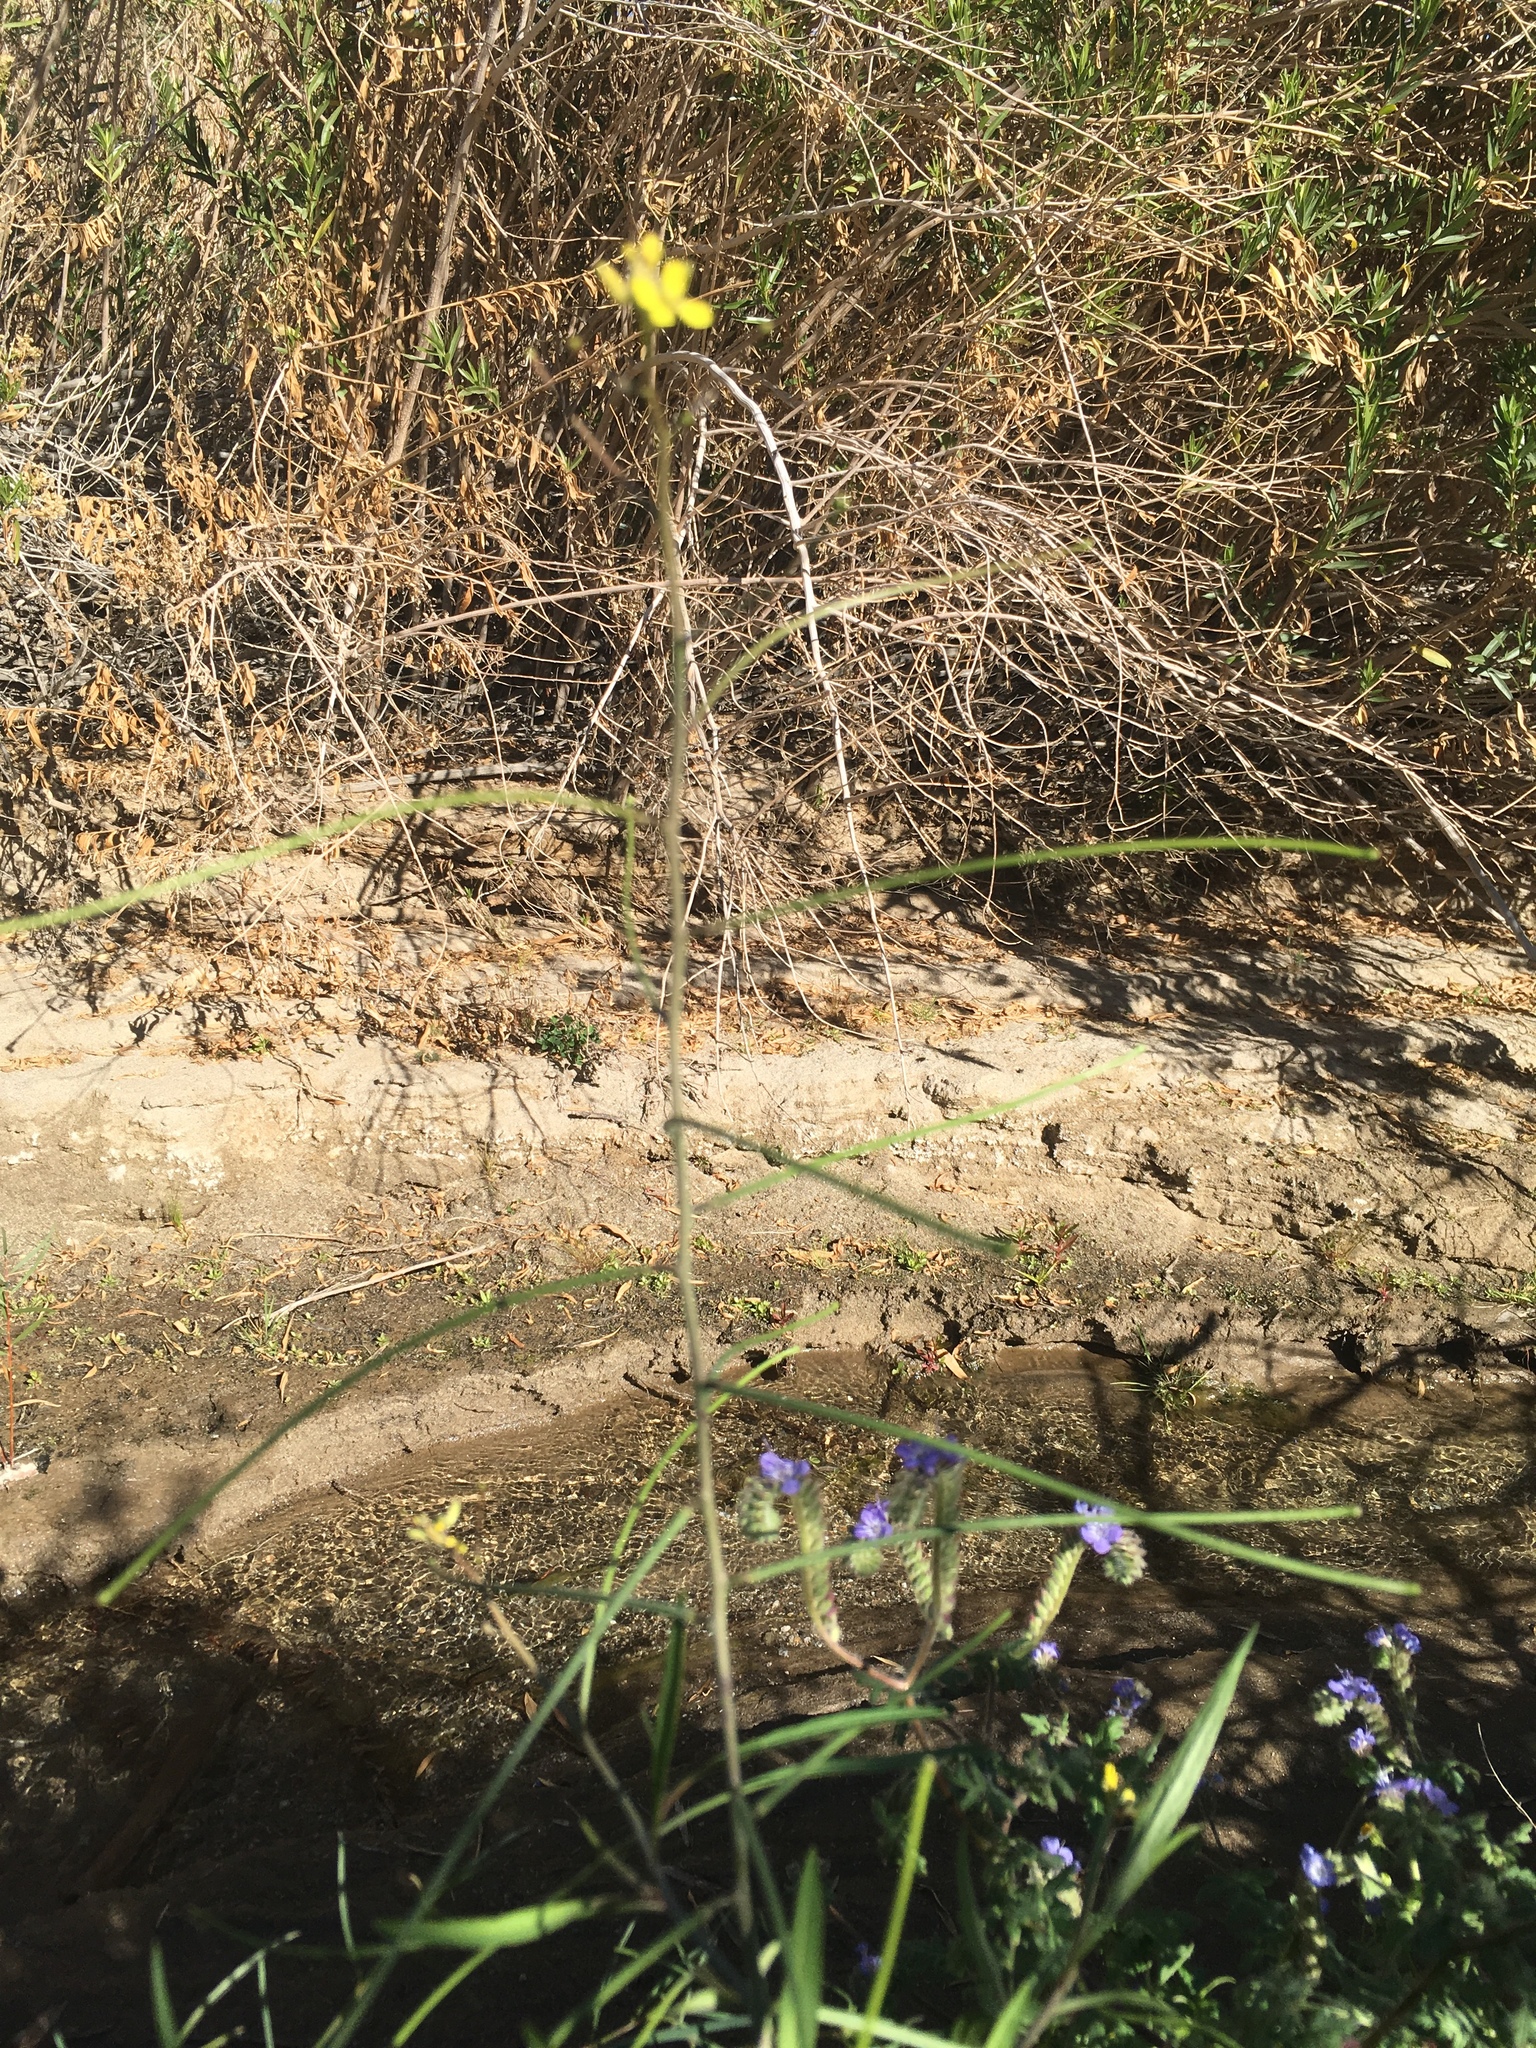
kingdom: Plantae
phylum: Tracheophyta
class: Magnoliopsida
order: Brassicales
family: Brassicaceae
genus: Sisymbrium
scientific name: Sisymbrium orientale
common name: Eastern rocket
